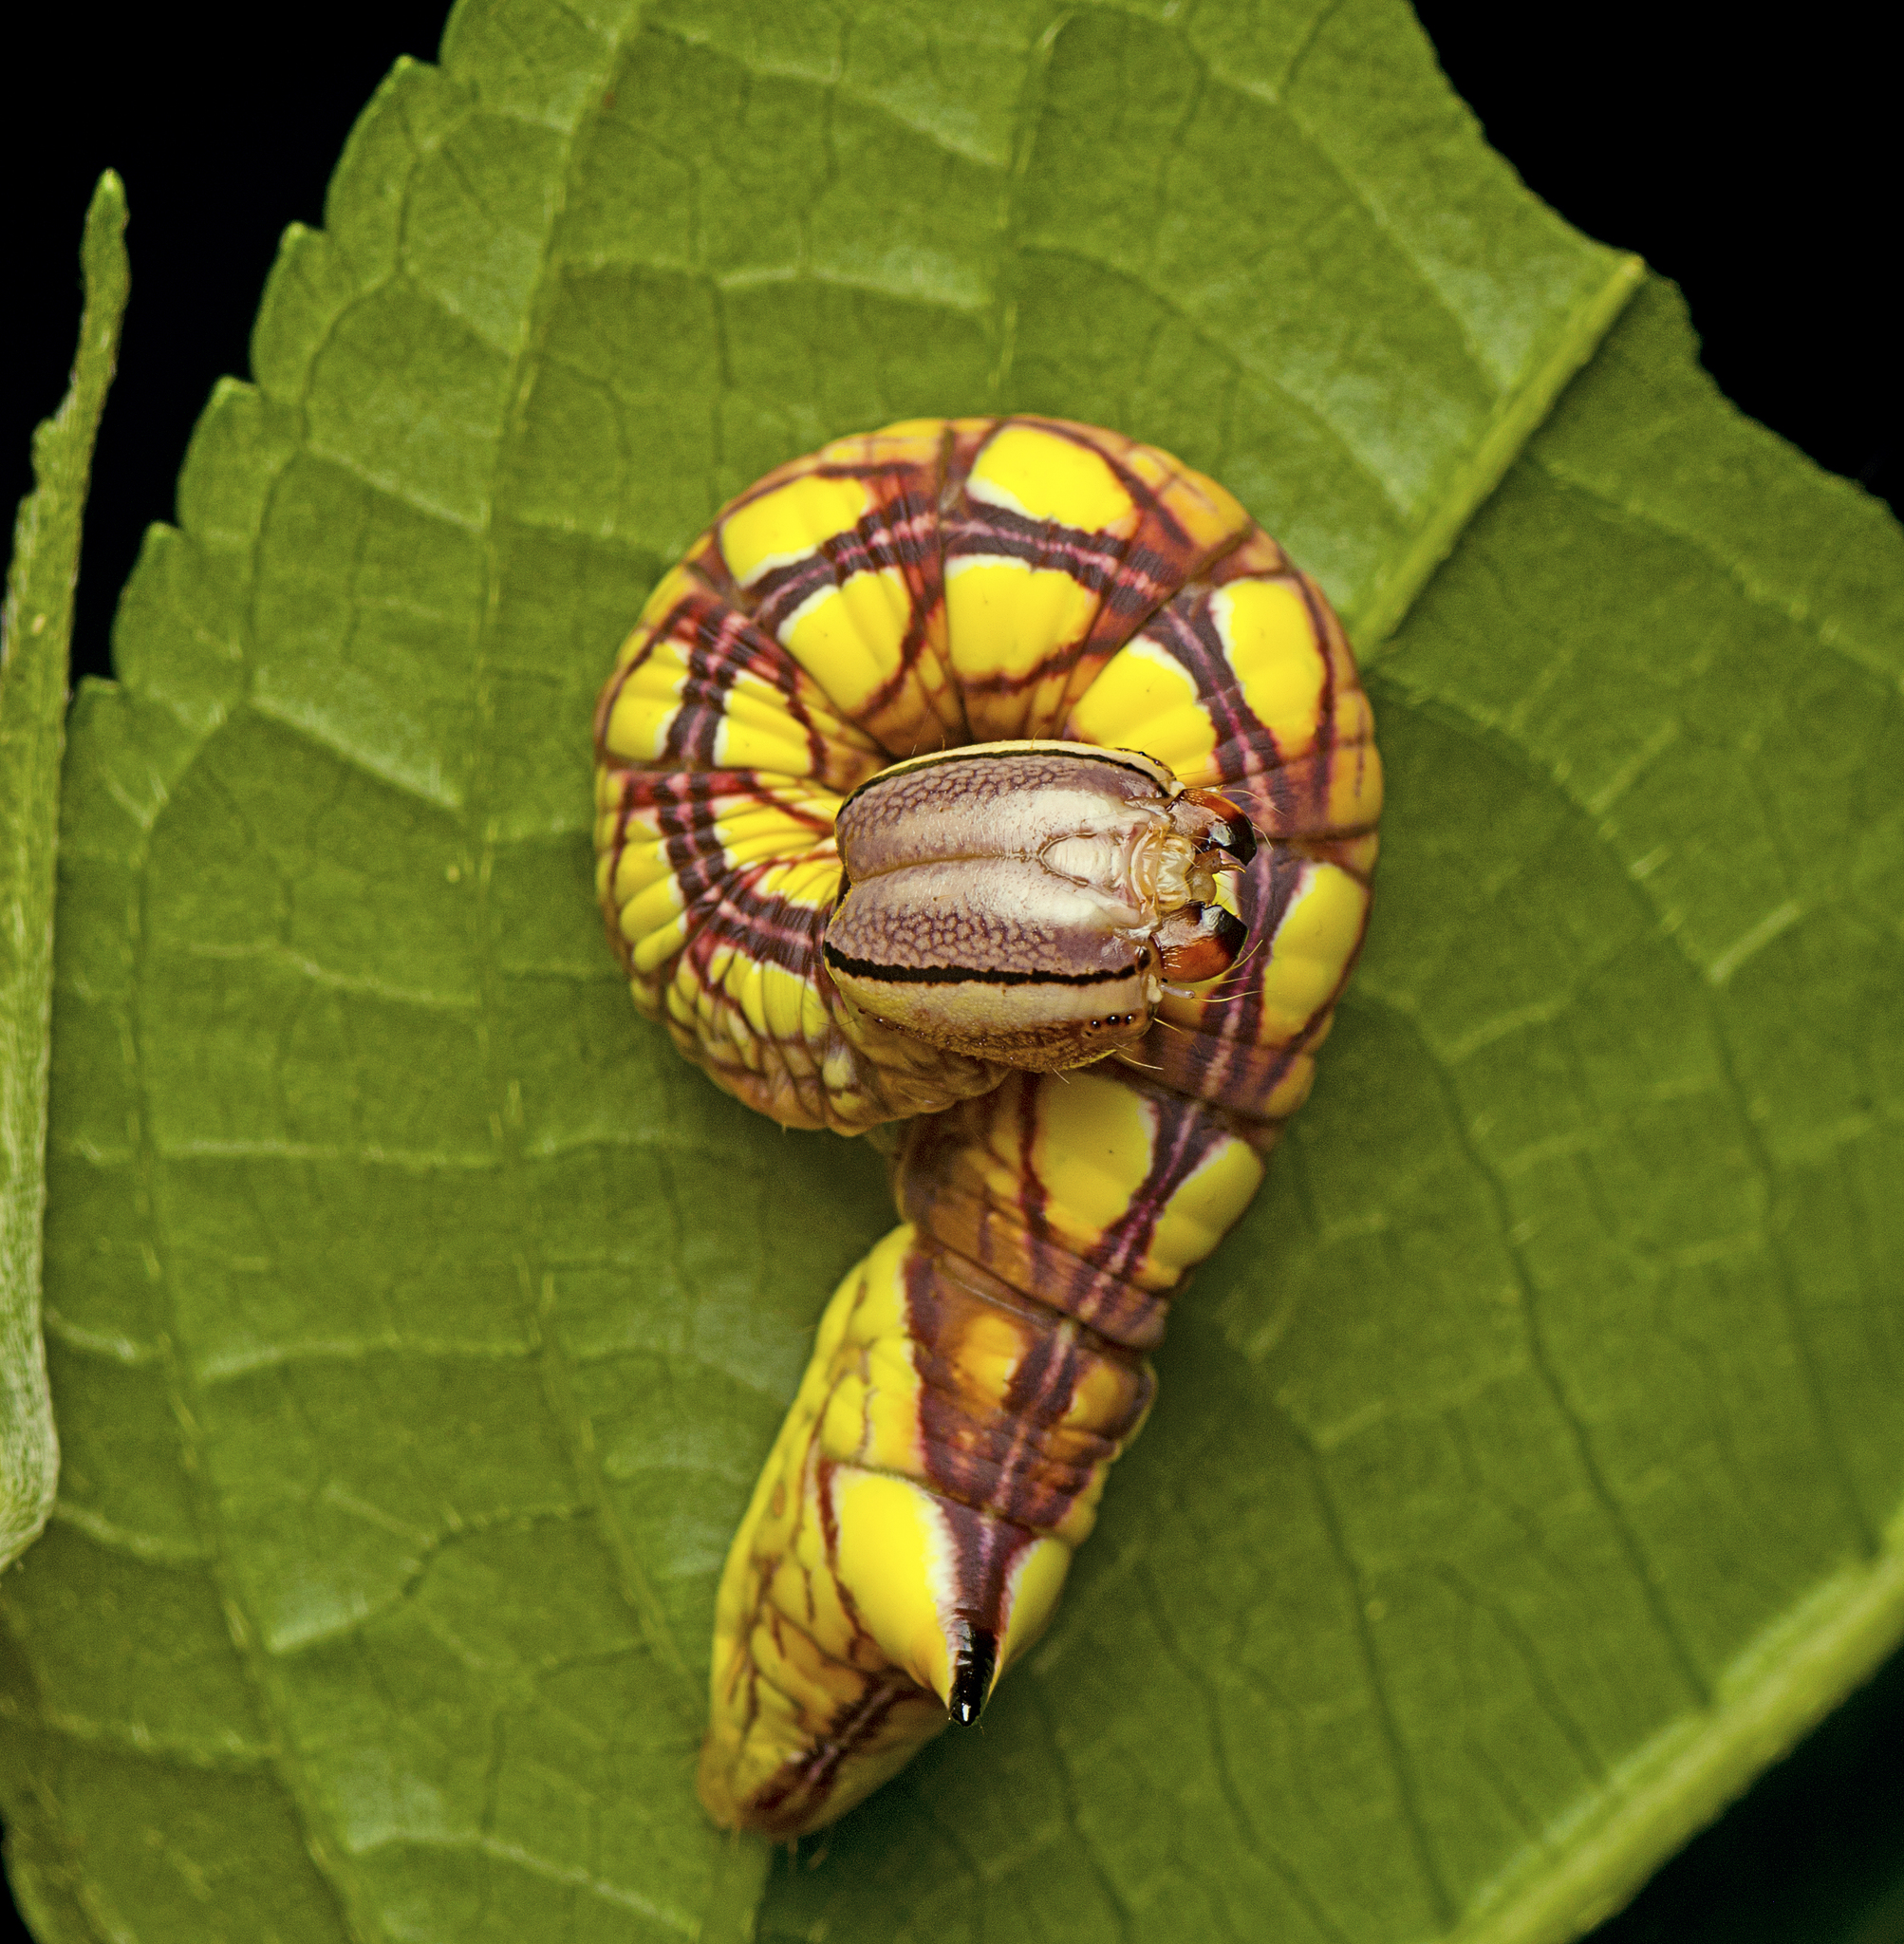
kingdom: Animalia
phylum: Arthropoda
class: Insecta
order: Lepidoptera
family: Notodontidae
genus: Chadisra
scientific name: Chadisra Antithemerastis acrobela
